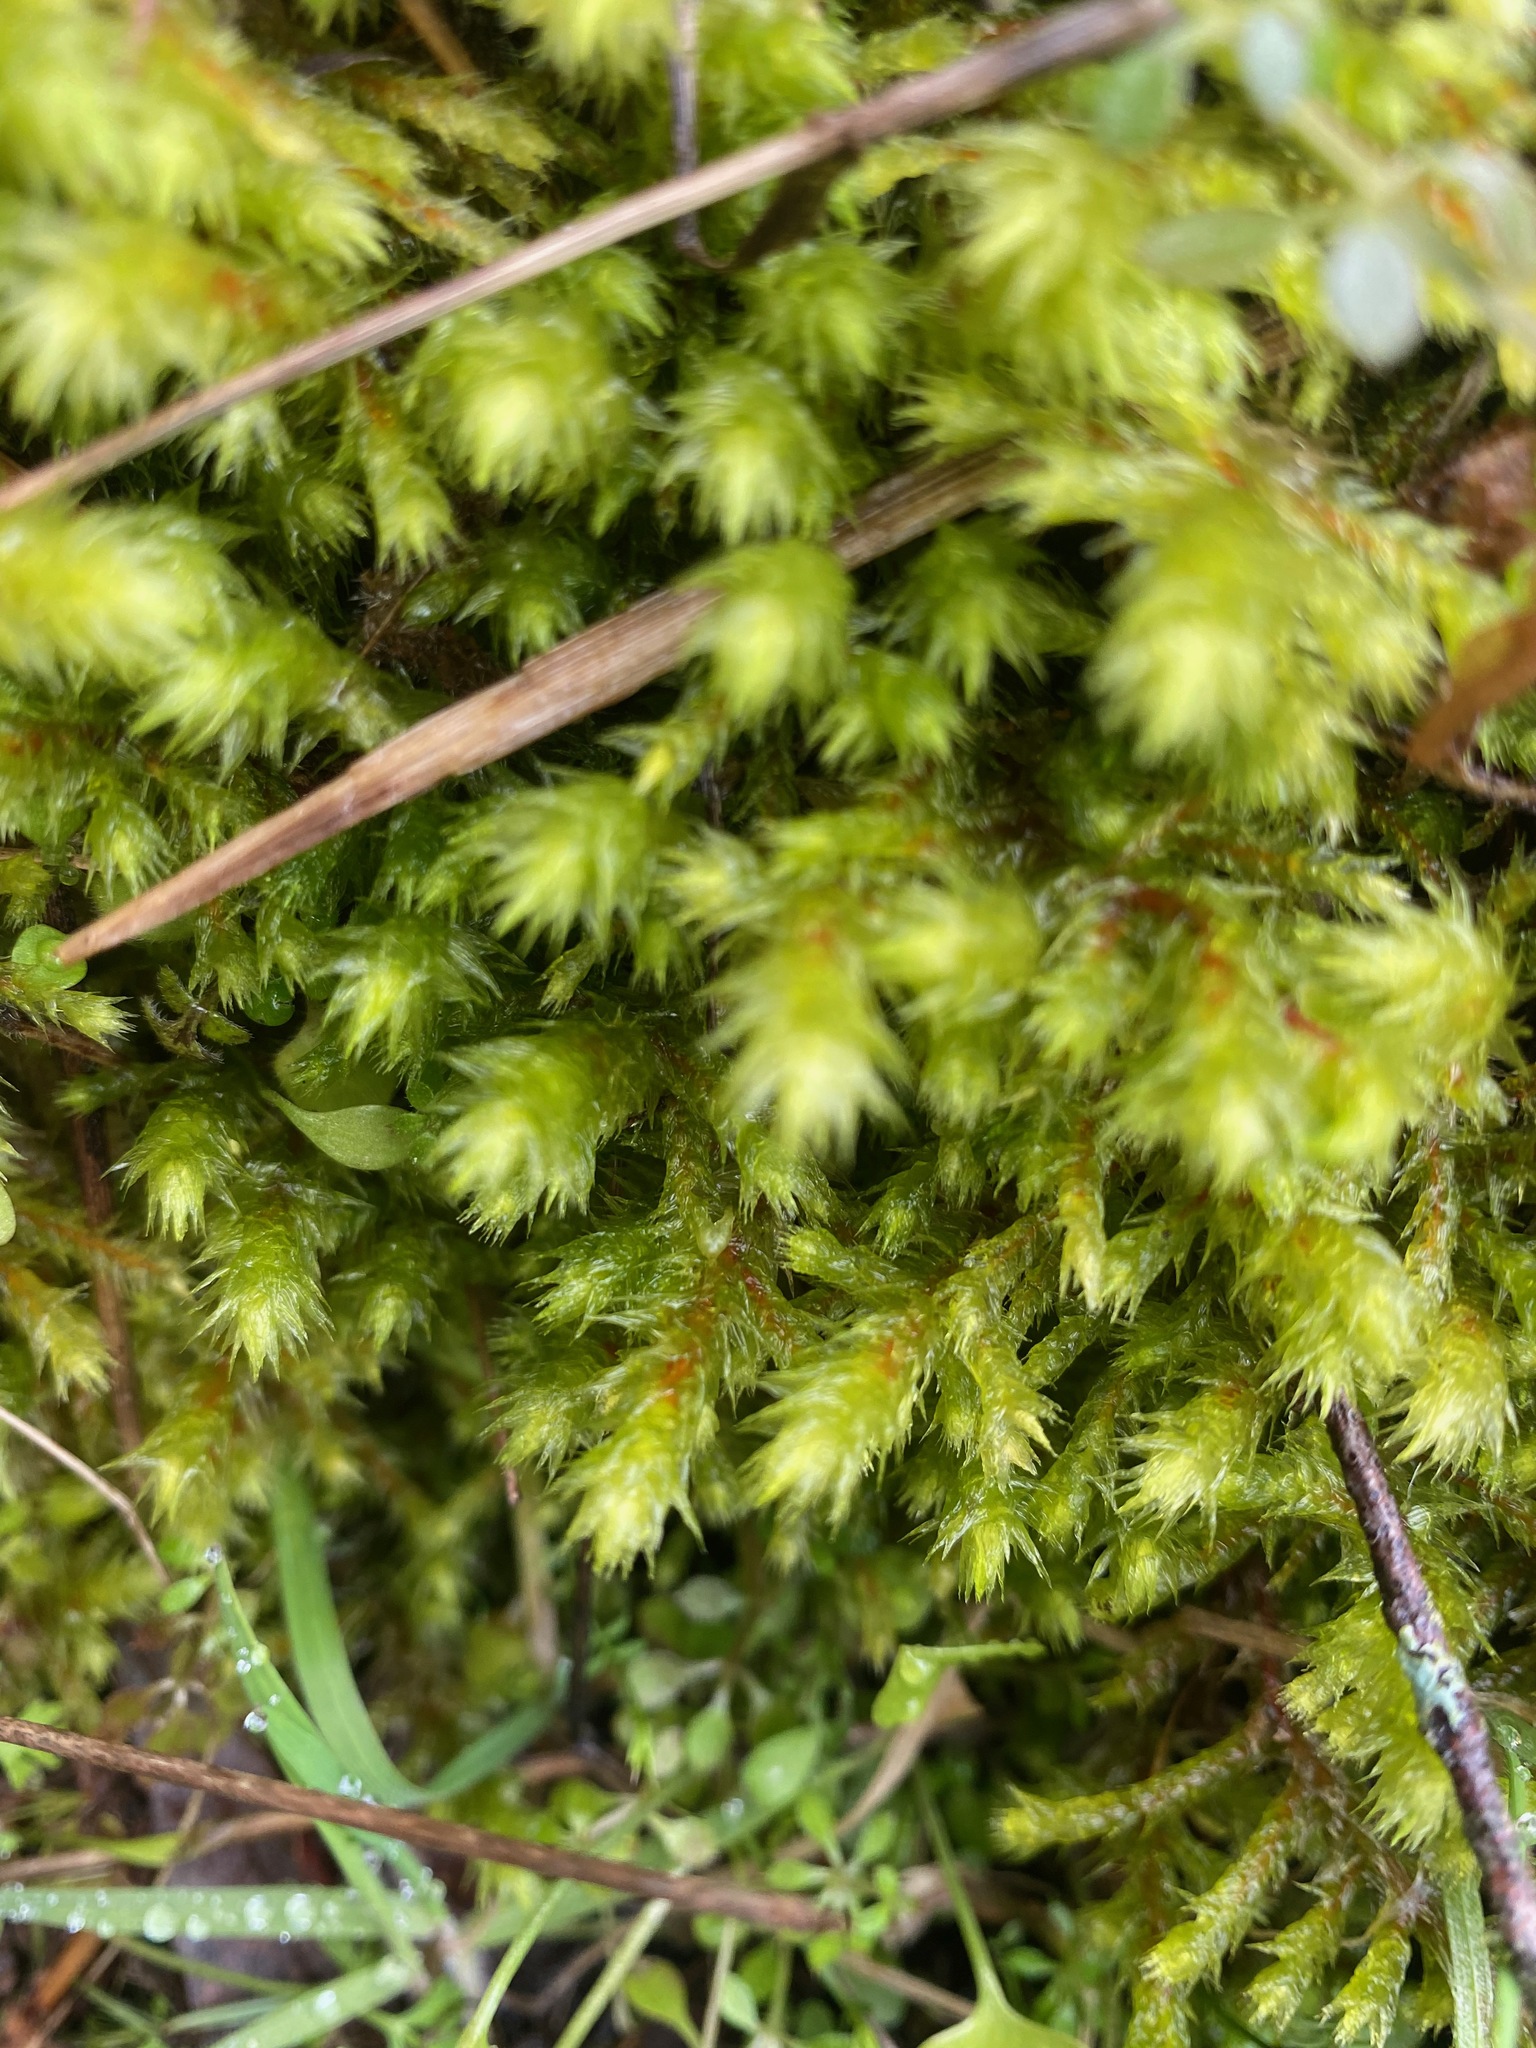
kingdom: Plantae
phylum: Bryophyta
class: Bryopsida
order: Hypnales
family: Hylocomiaceae
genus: Hylocomiadelphus
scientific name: Hylocomiadelphus triquetrus
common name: Rough goose neck moss
